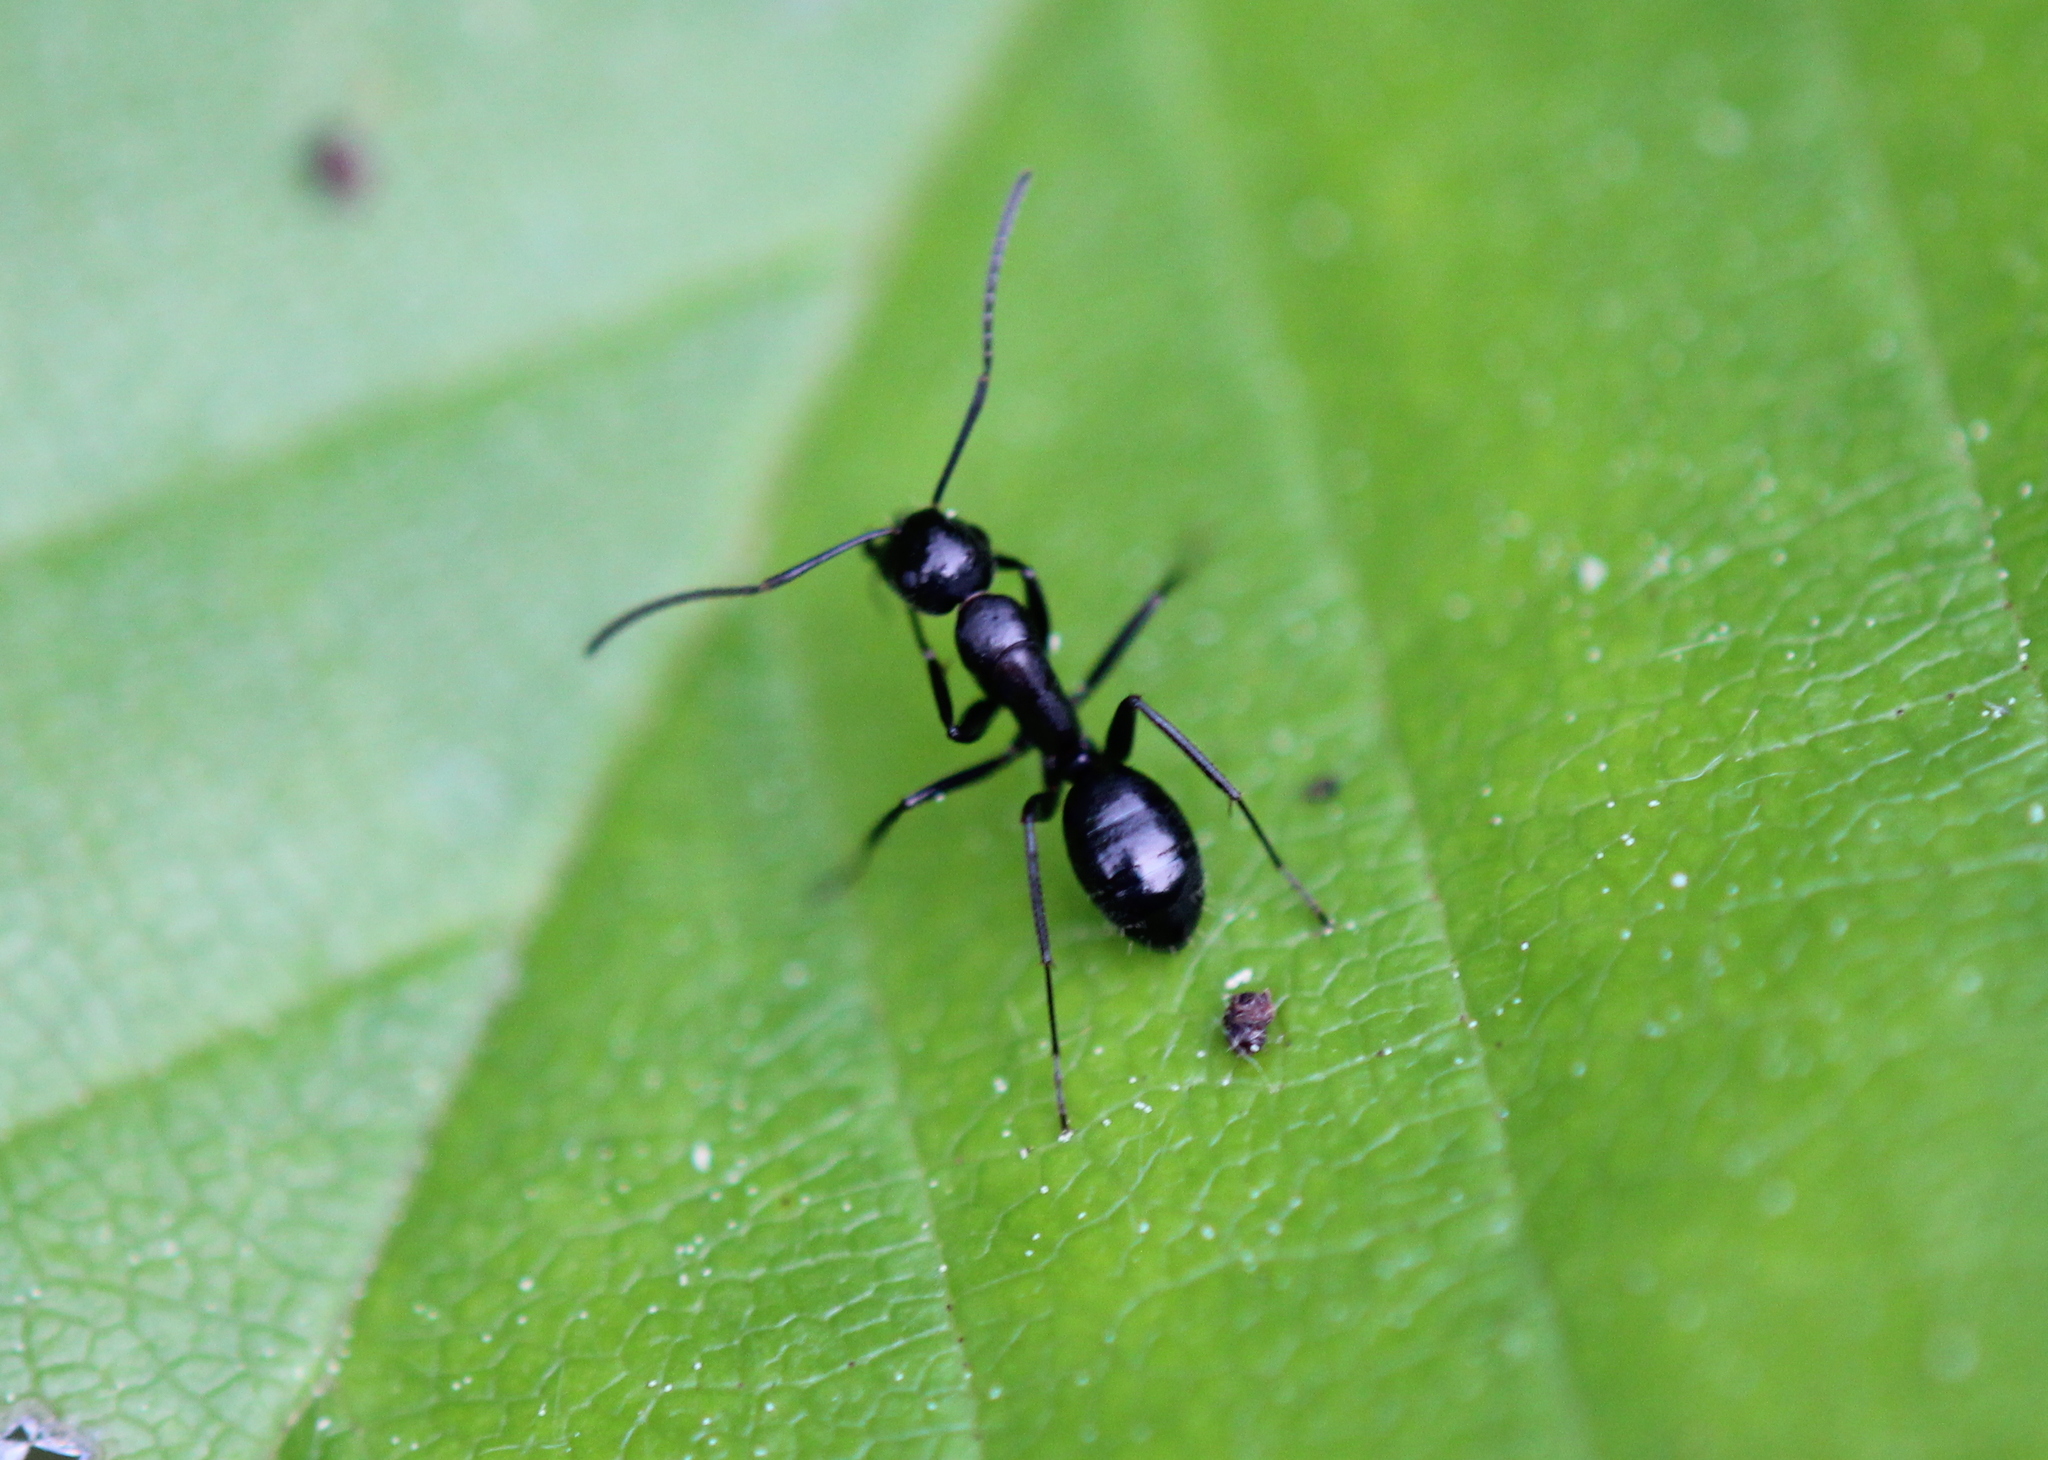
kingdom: Animalia
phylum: Arthropoda
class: Insecta
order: Hymenoptera
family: Formicidae
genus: Myrmentoma
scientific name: Myrmentoma
